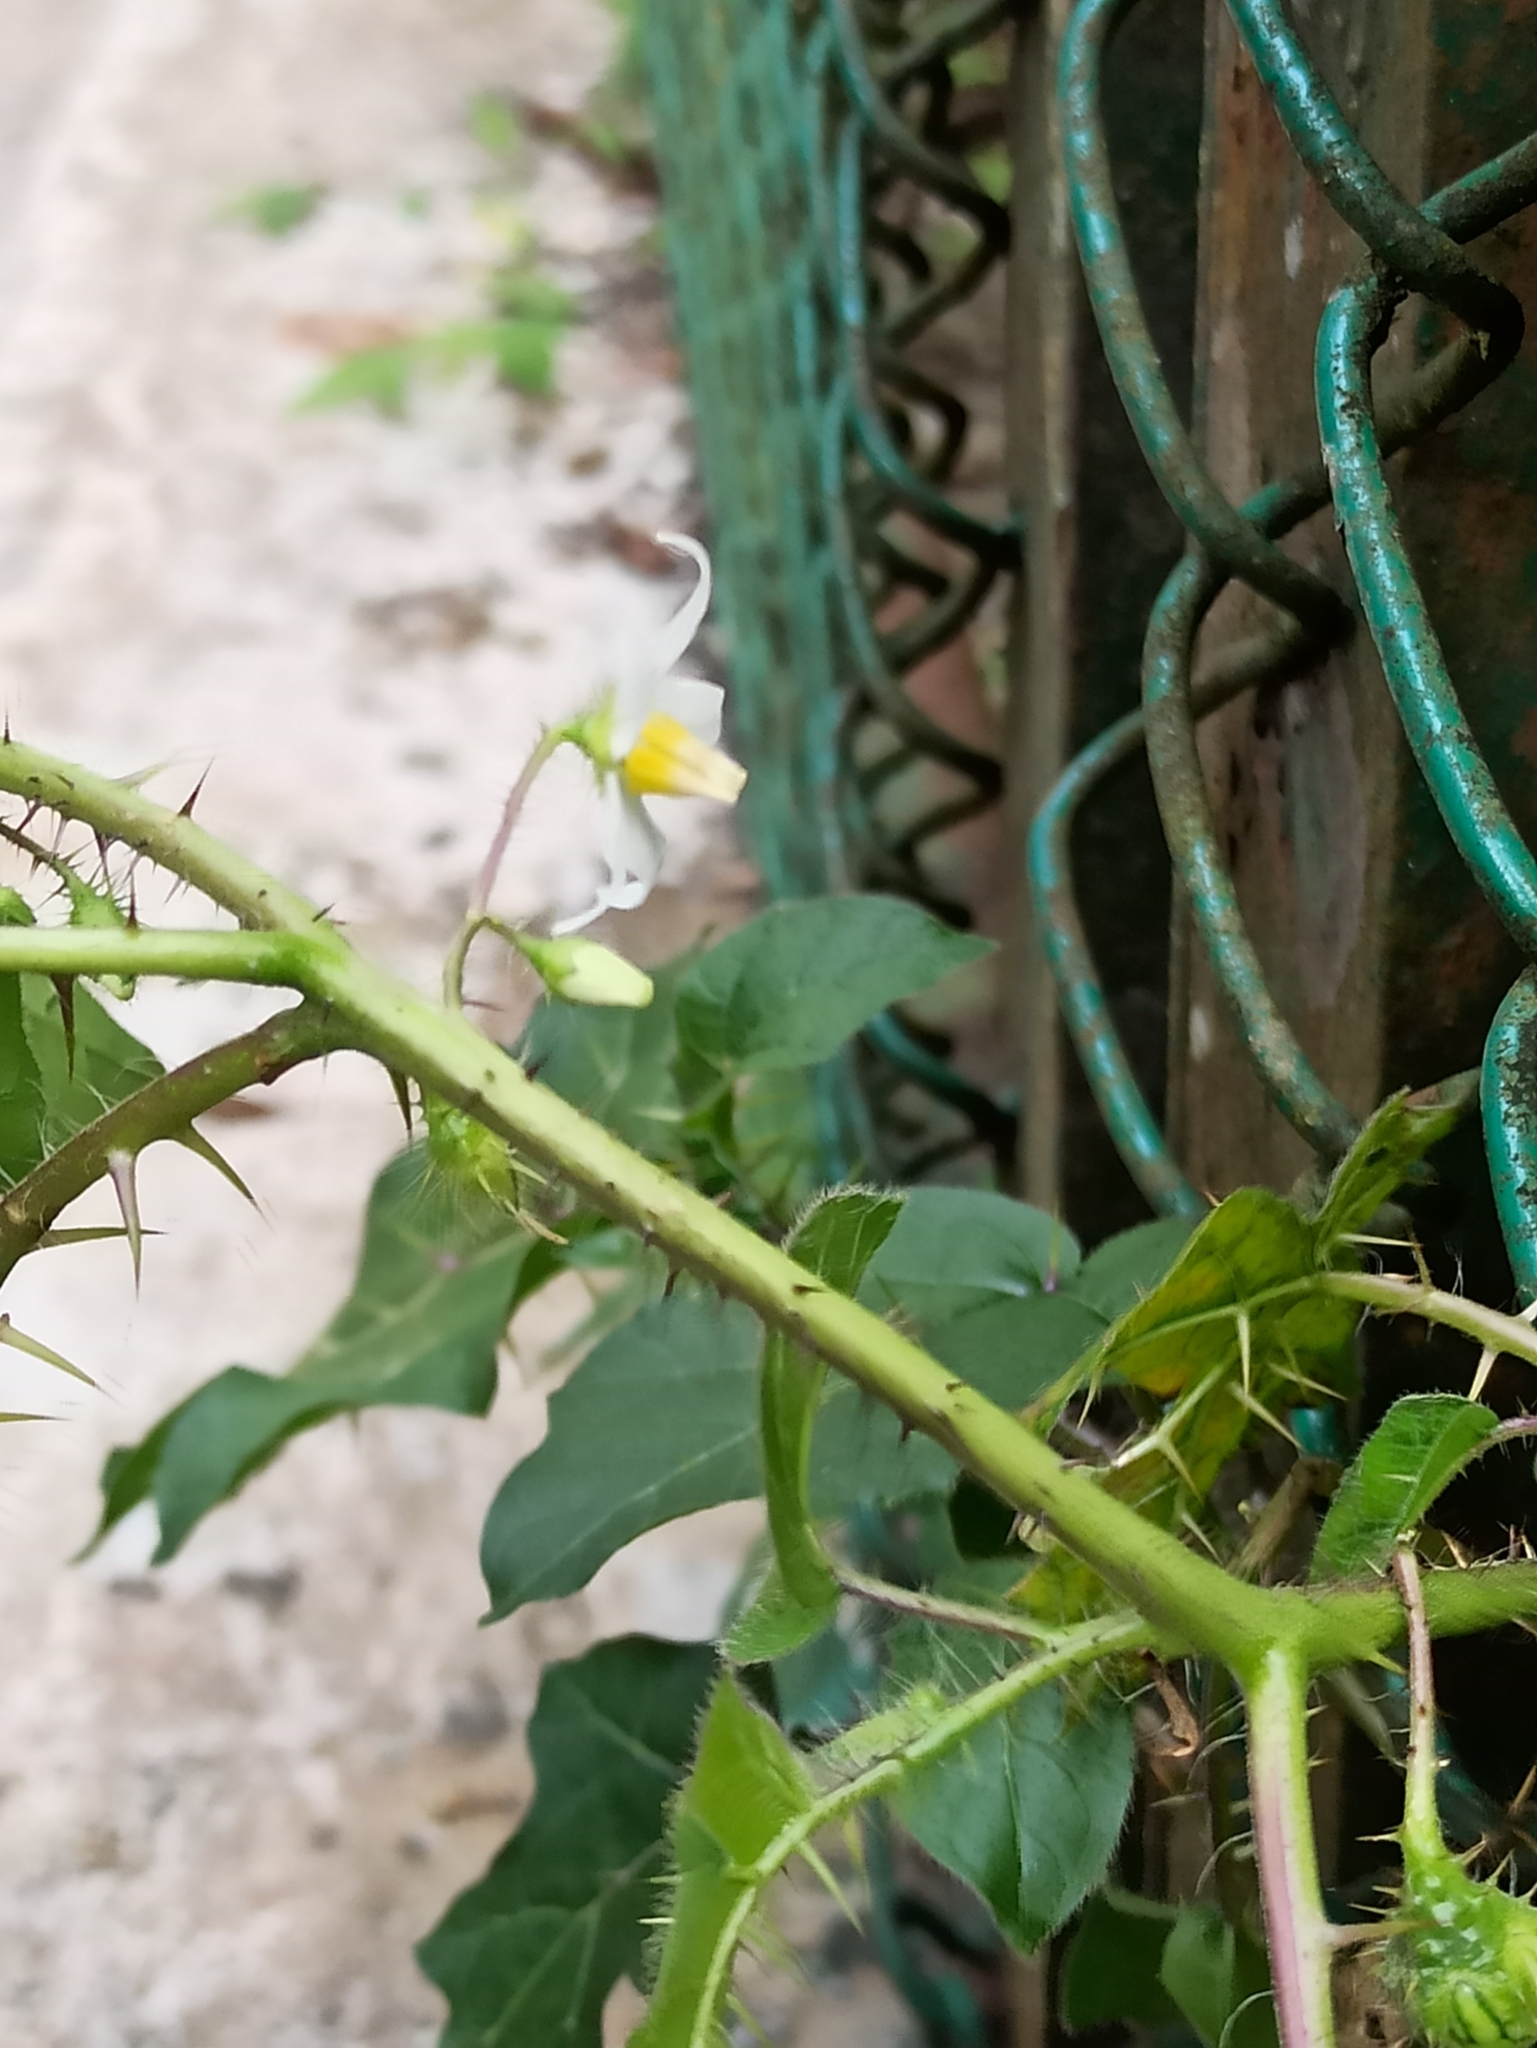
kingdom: Plantae
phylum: Tracheophyta
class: Magnoliopsida
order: Solanales
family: Solanaceae
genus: Solanum
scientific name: Solanum capsicoides
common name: Cockroach berry
